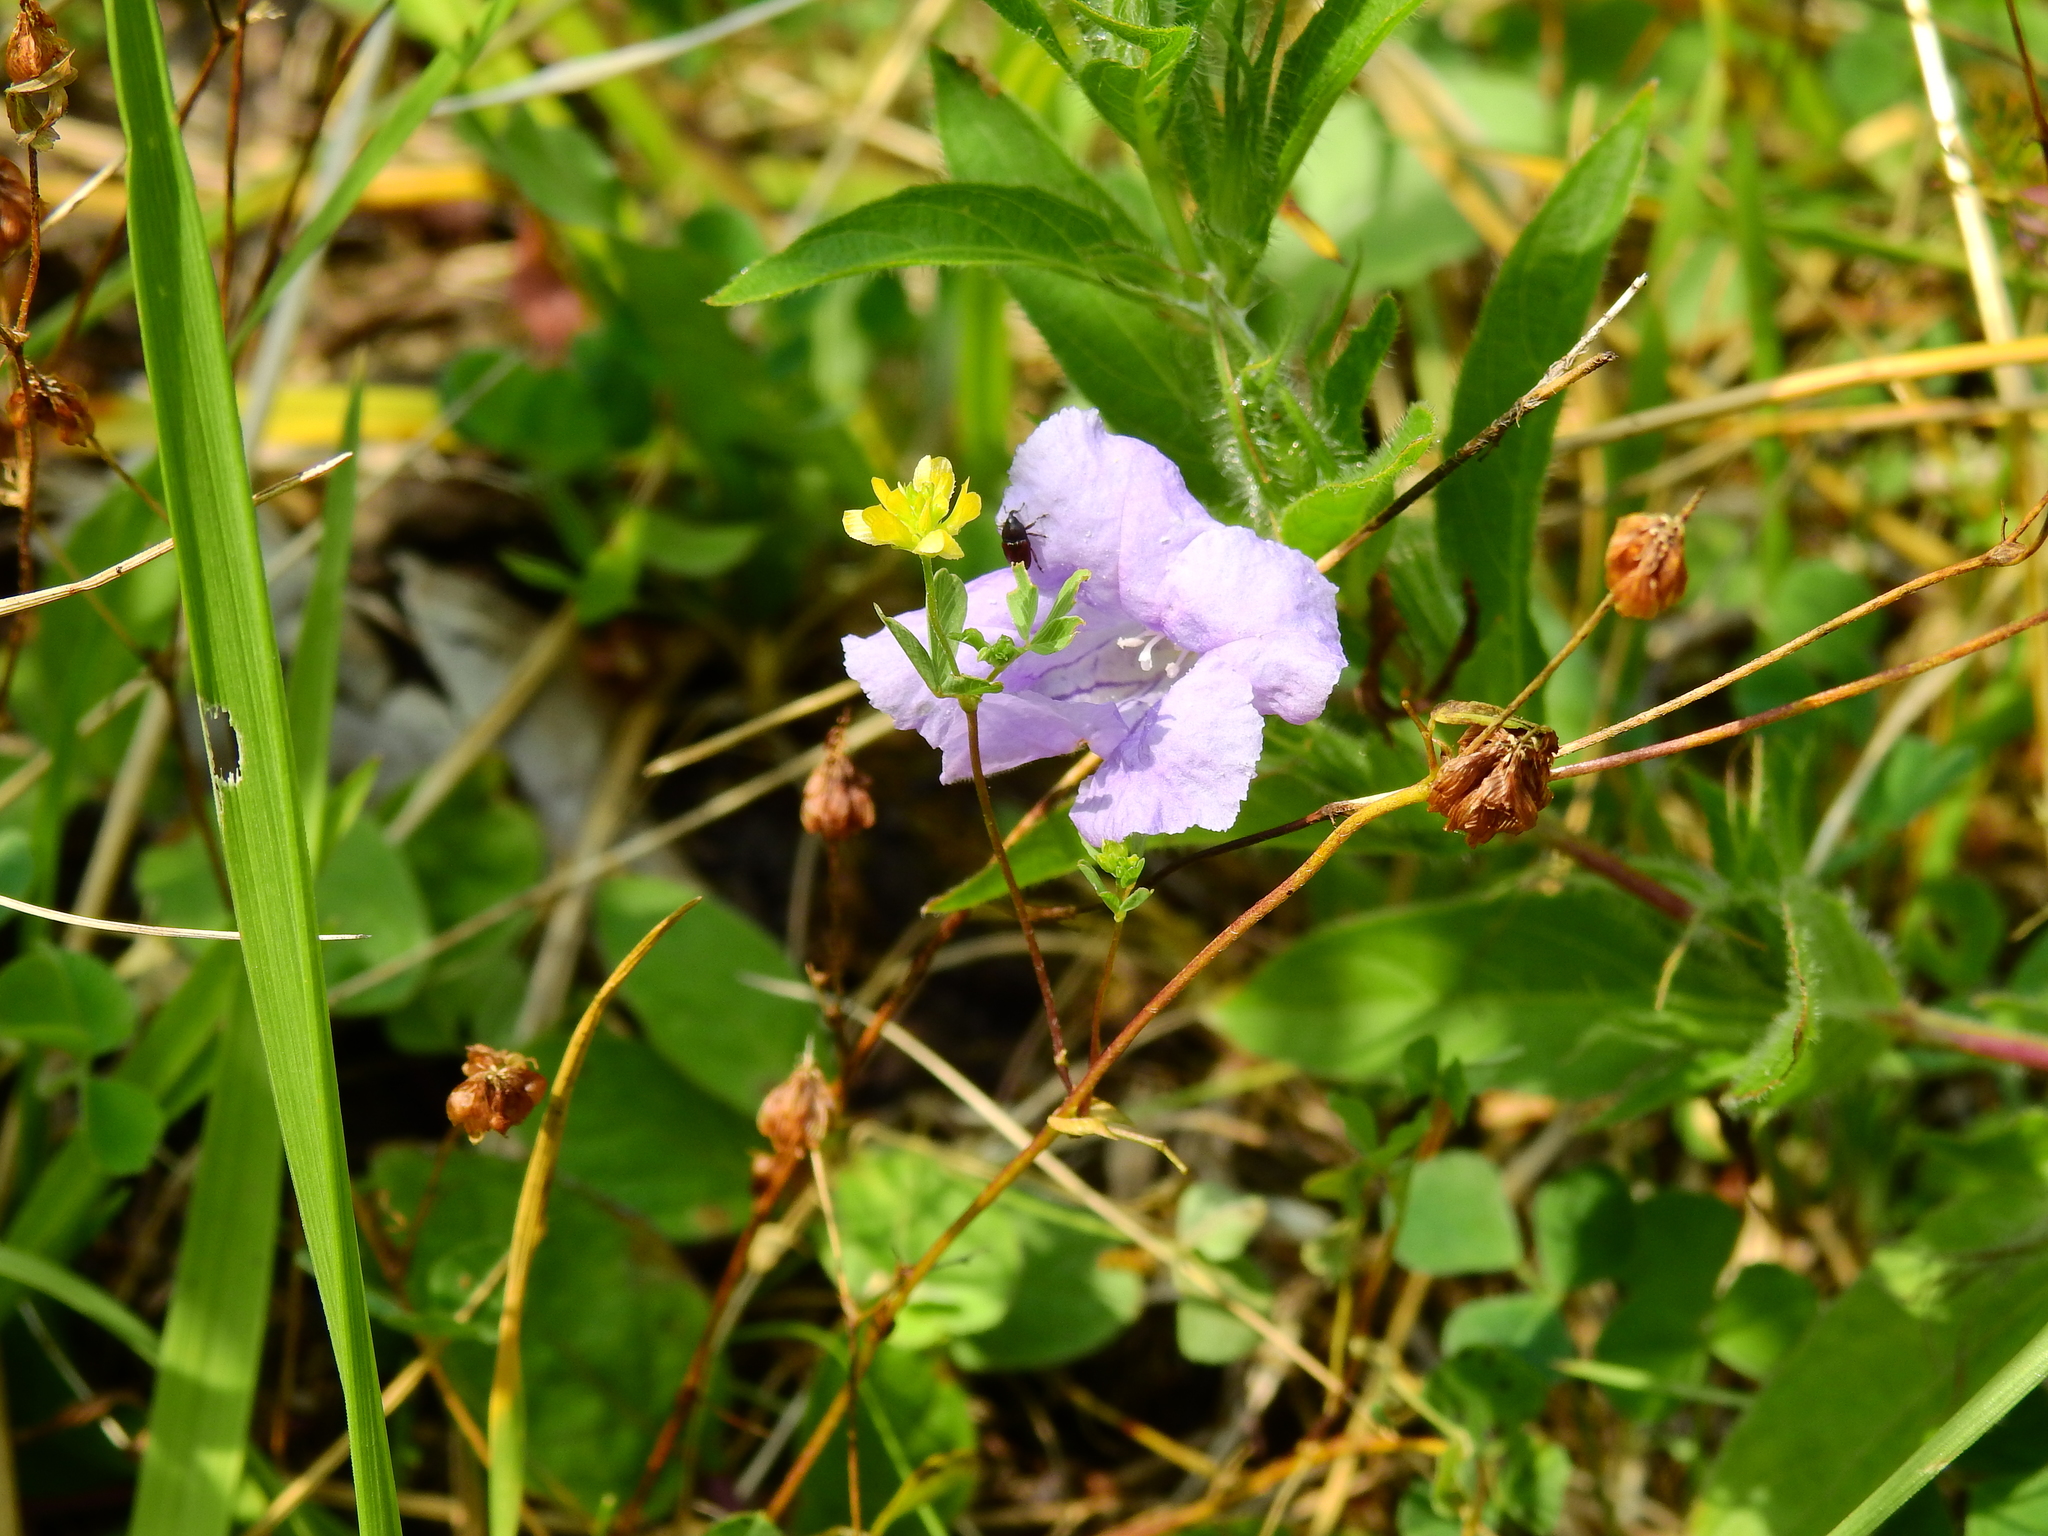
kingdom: Plantae
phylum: Tracheophyta
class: Magnoliopsida
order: Fabales
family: Fabaceae
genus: Trifolium
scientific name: Trifolium dubium
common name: Suckling clover
